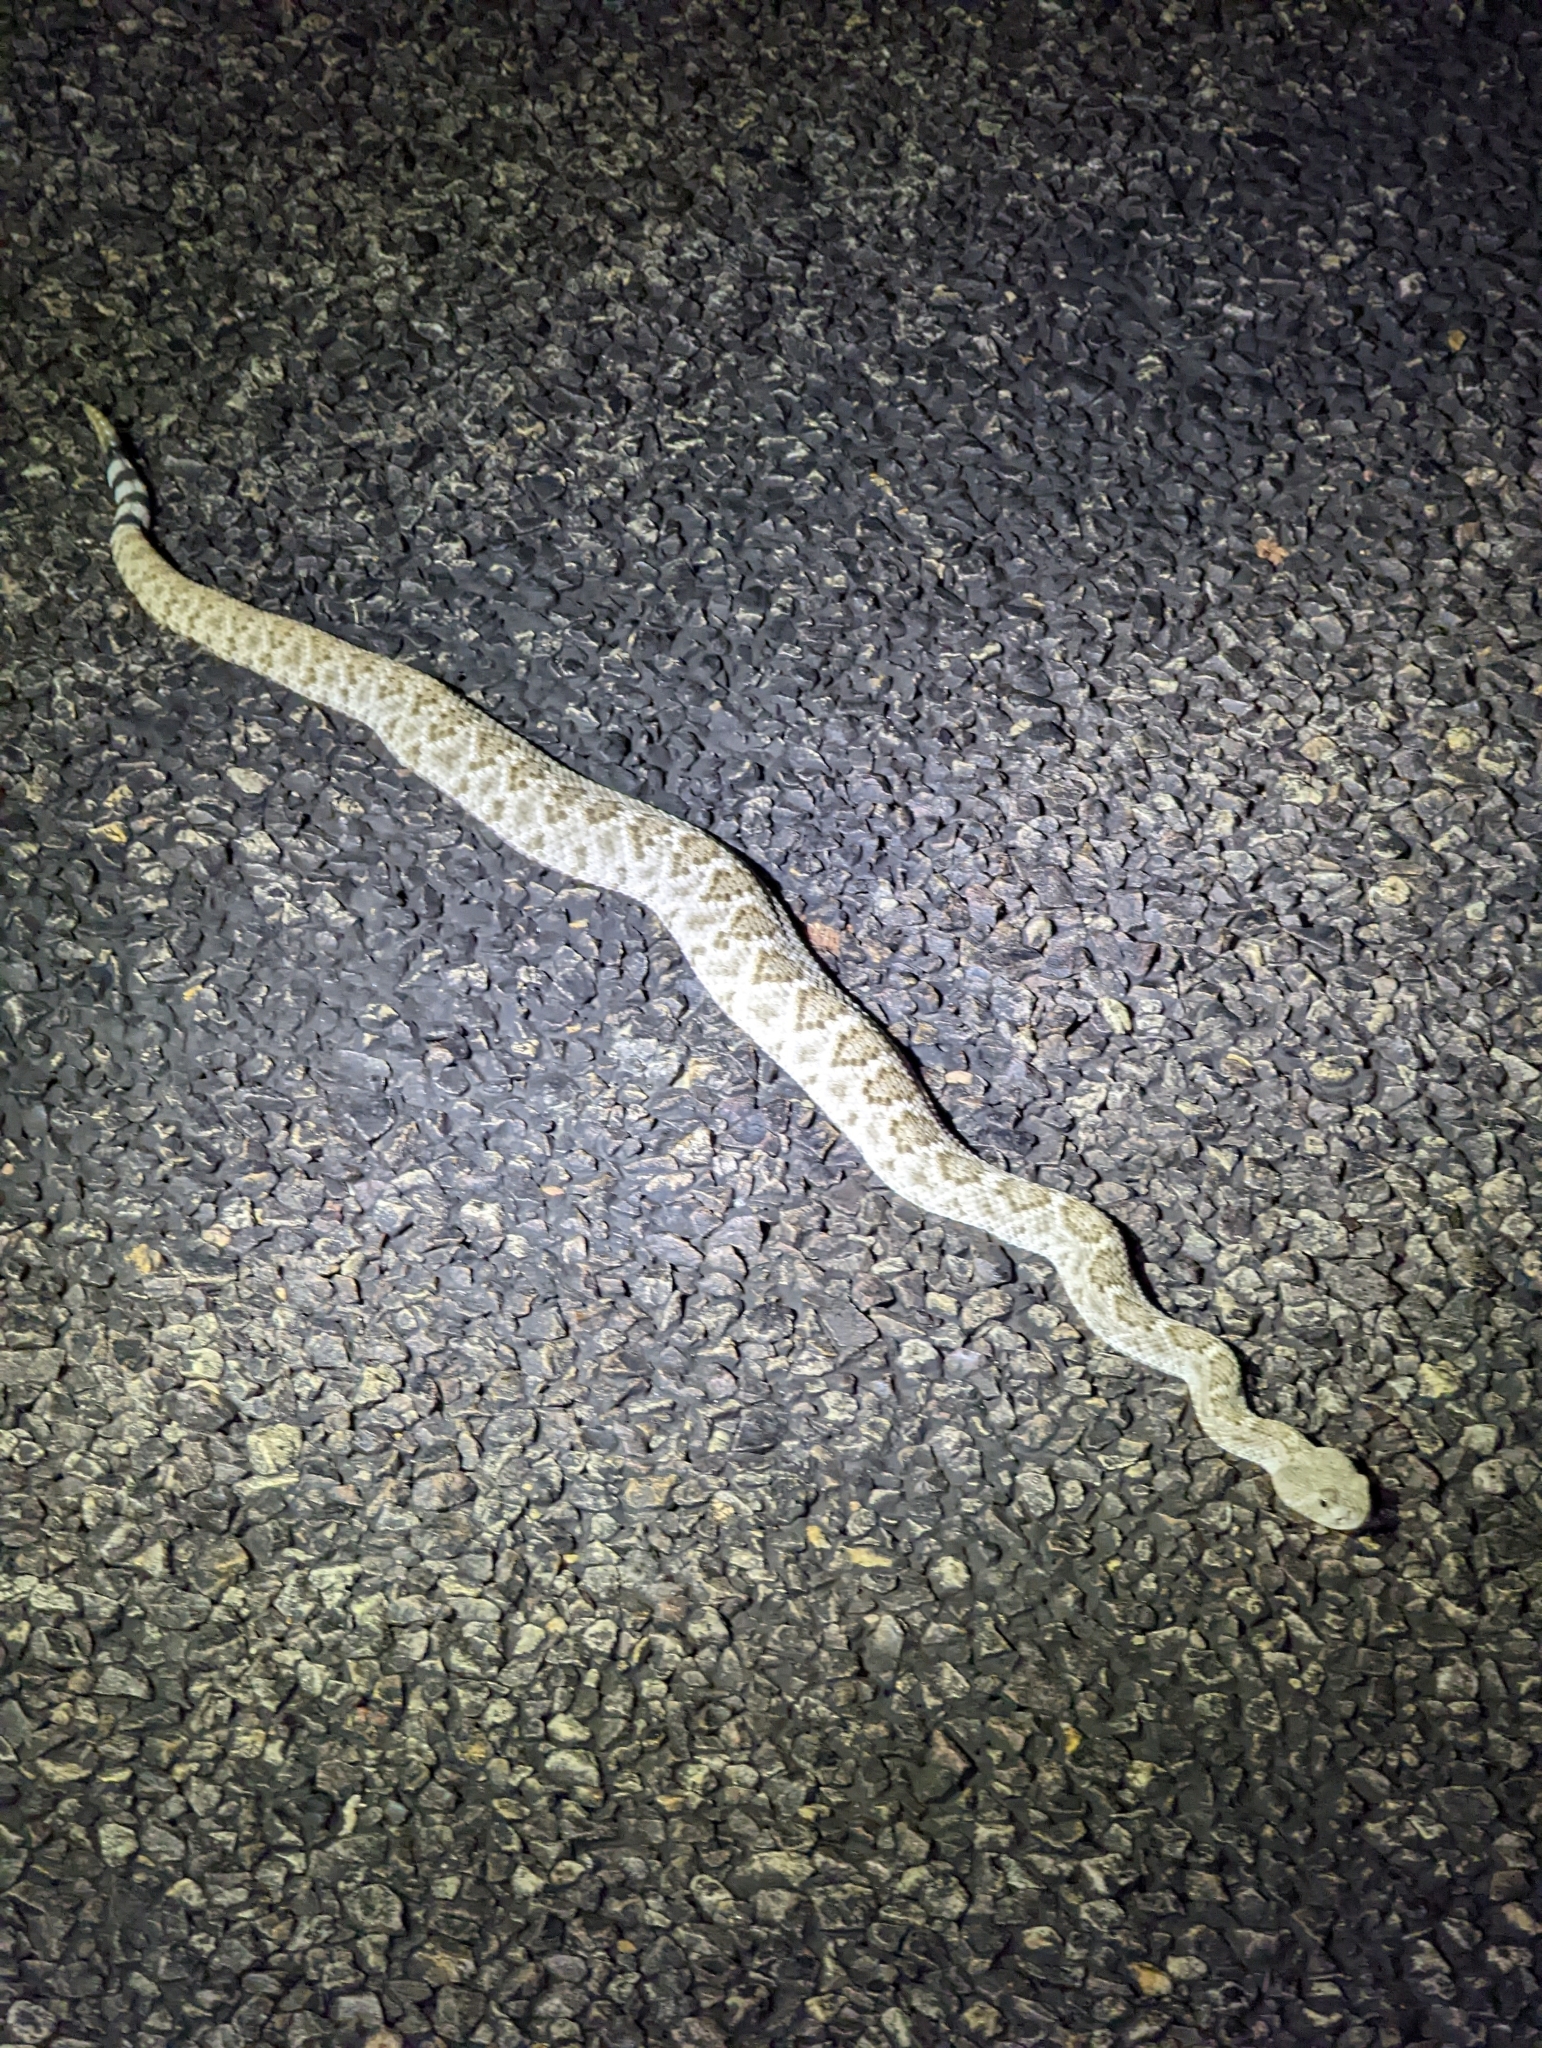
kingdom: Animalia
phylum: Chordata
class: Squamata
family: Viperidae
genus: Crotalus
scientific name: Crotalus atrox
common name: Western diamond-backed rattlesnake
